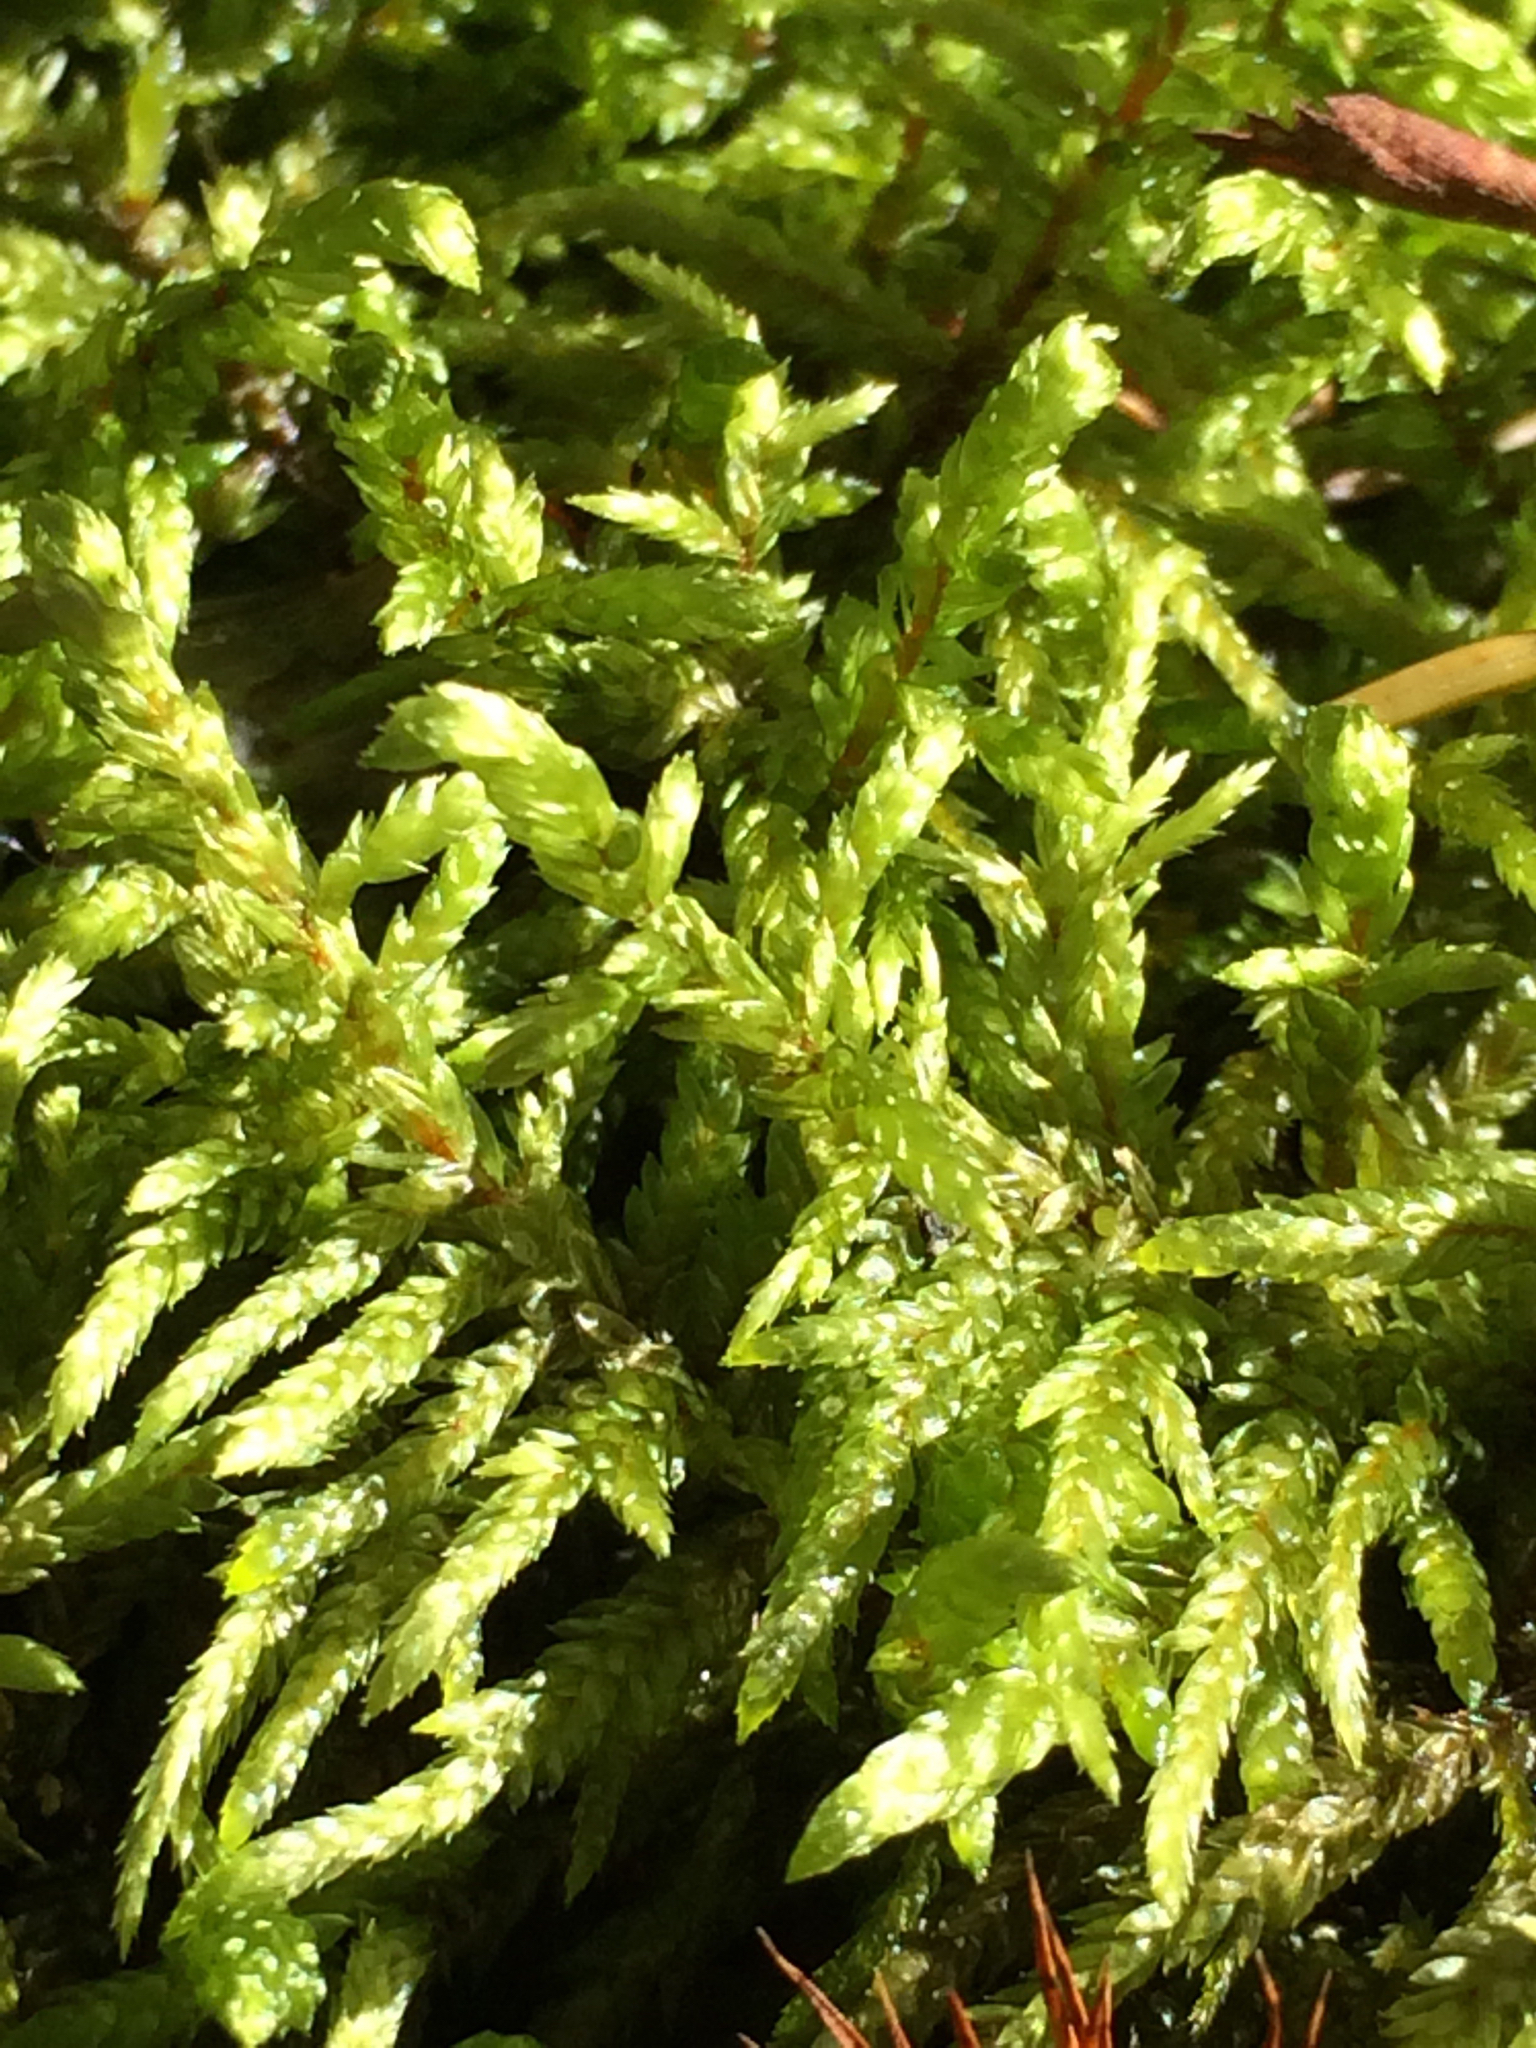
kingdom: Plantae
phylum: Bryophyta
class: Bryopsida
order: Hypnales
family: Hylocomiaceae
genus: Pleurozium
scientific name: Pleurozium schreberi
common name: Red-stemmed feather moss
